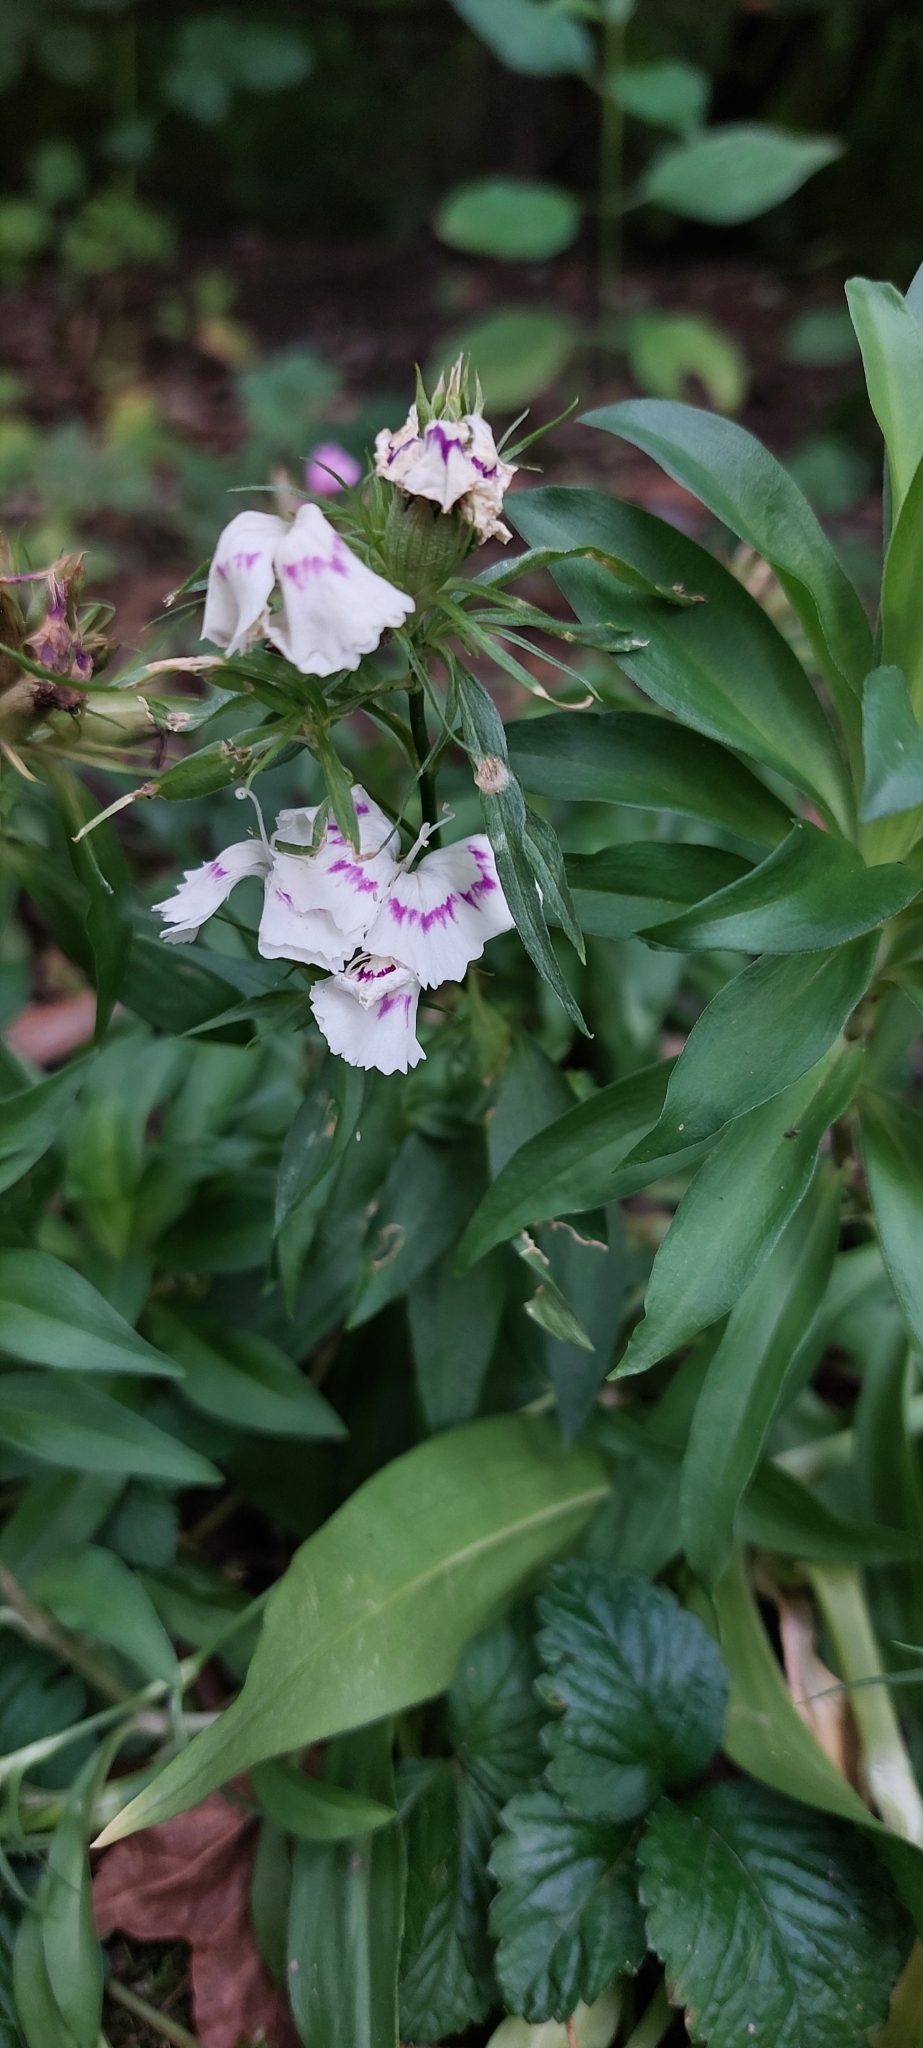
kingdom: Plantae
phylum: Tracheophyta
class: Magnoliopsida
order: Caryophyllales
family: Caryophyllaceae
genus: Dianthus
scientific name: Dianthus barbatus
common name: Sweet-william
